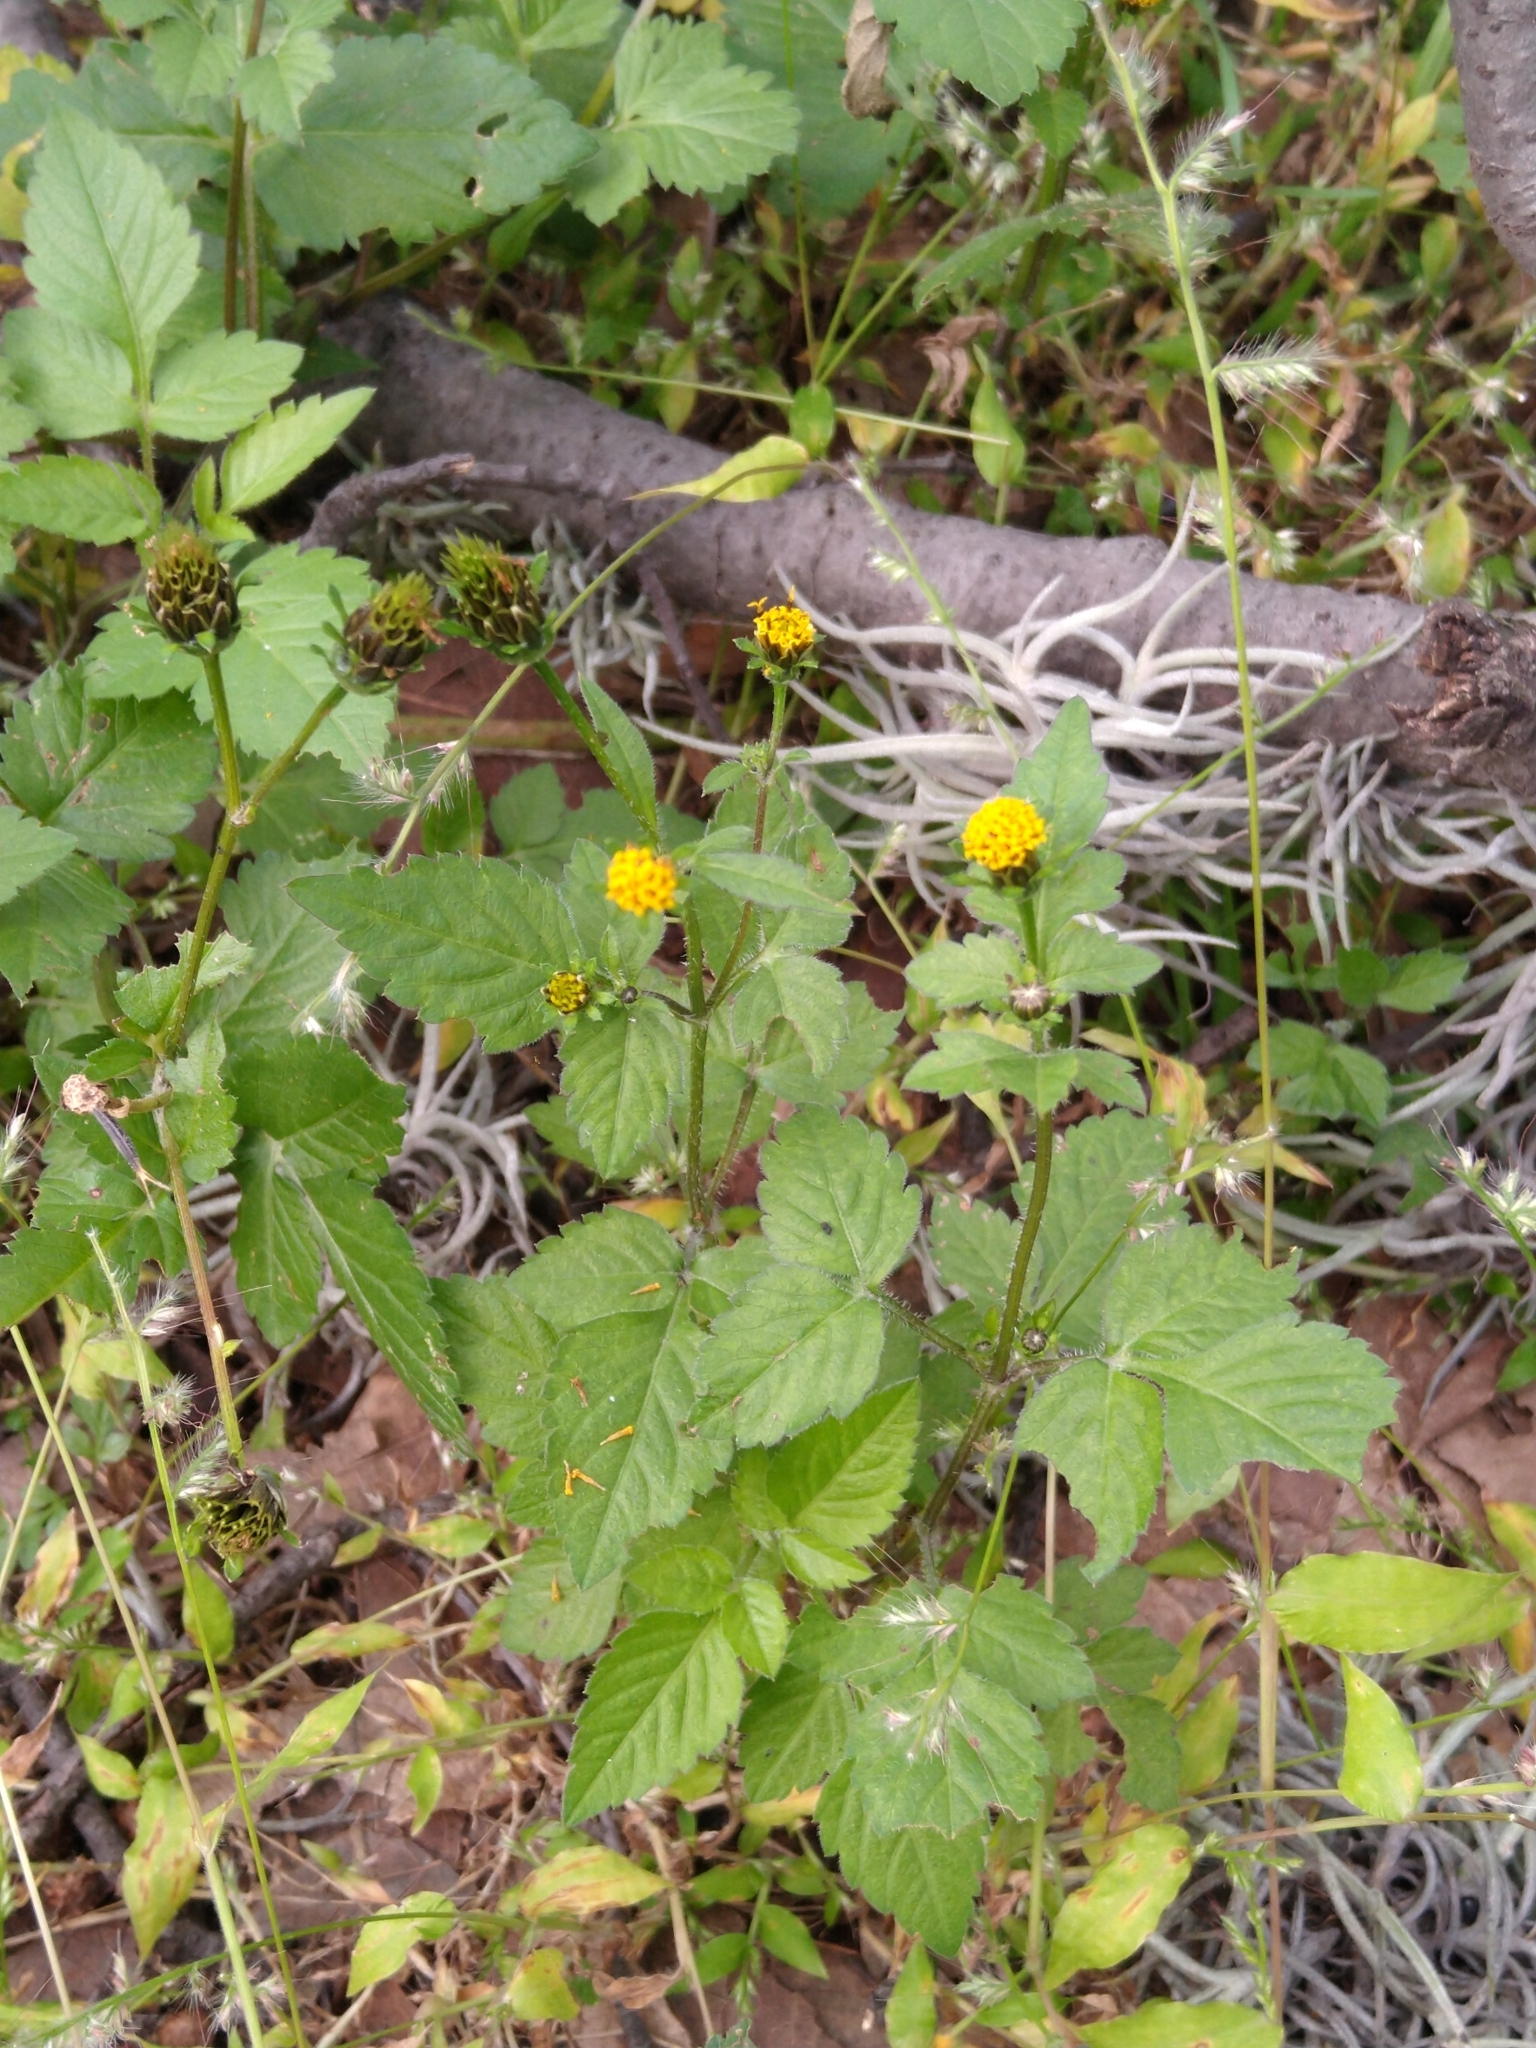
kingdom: Plantae
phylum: Tracheophyta
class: Magnoliopsida
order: Asterales
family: Asteraceae
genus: Bidens
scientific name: Bidens pilosa
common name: Black-jack
